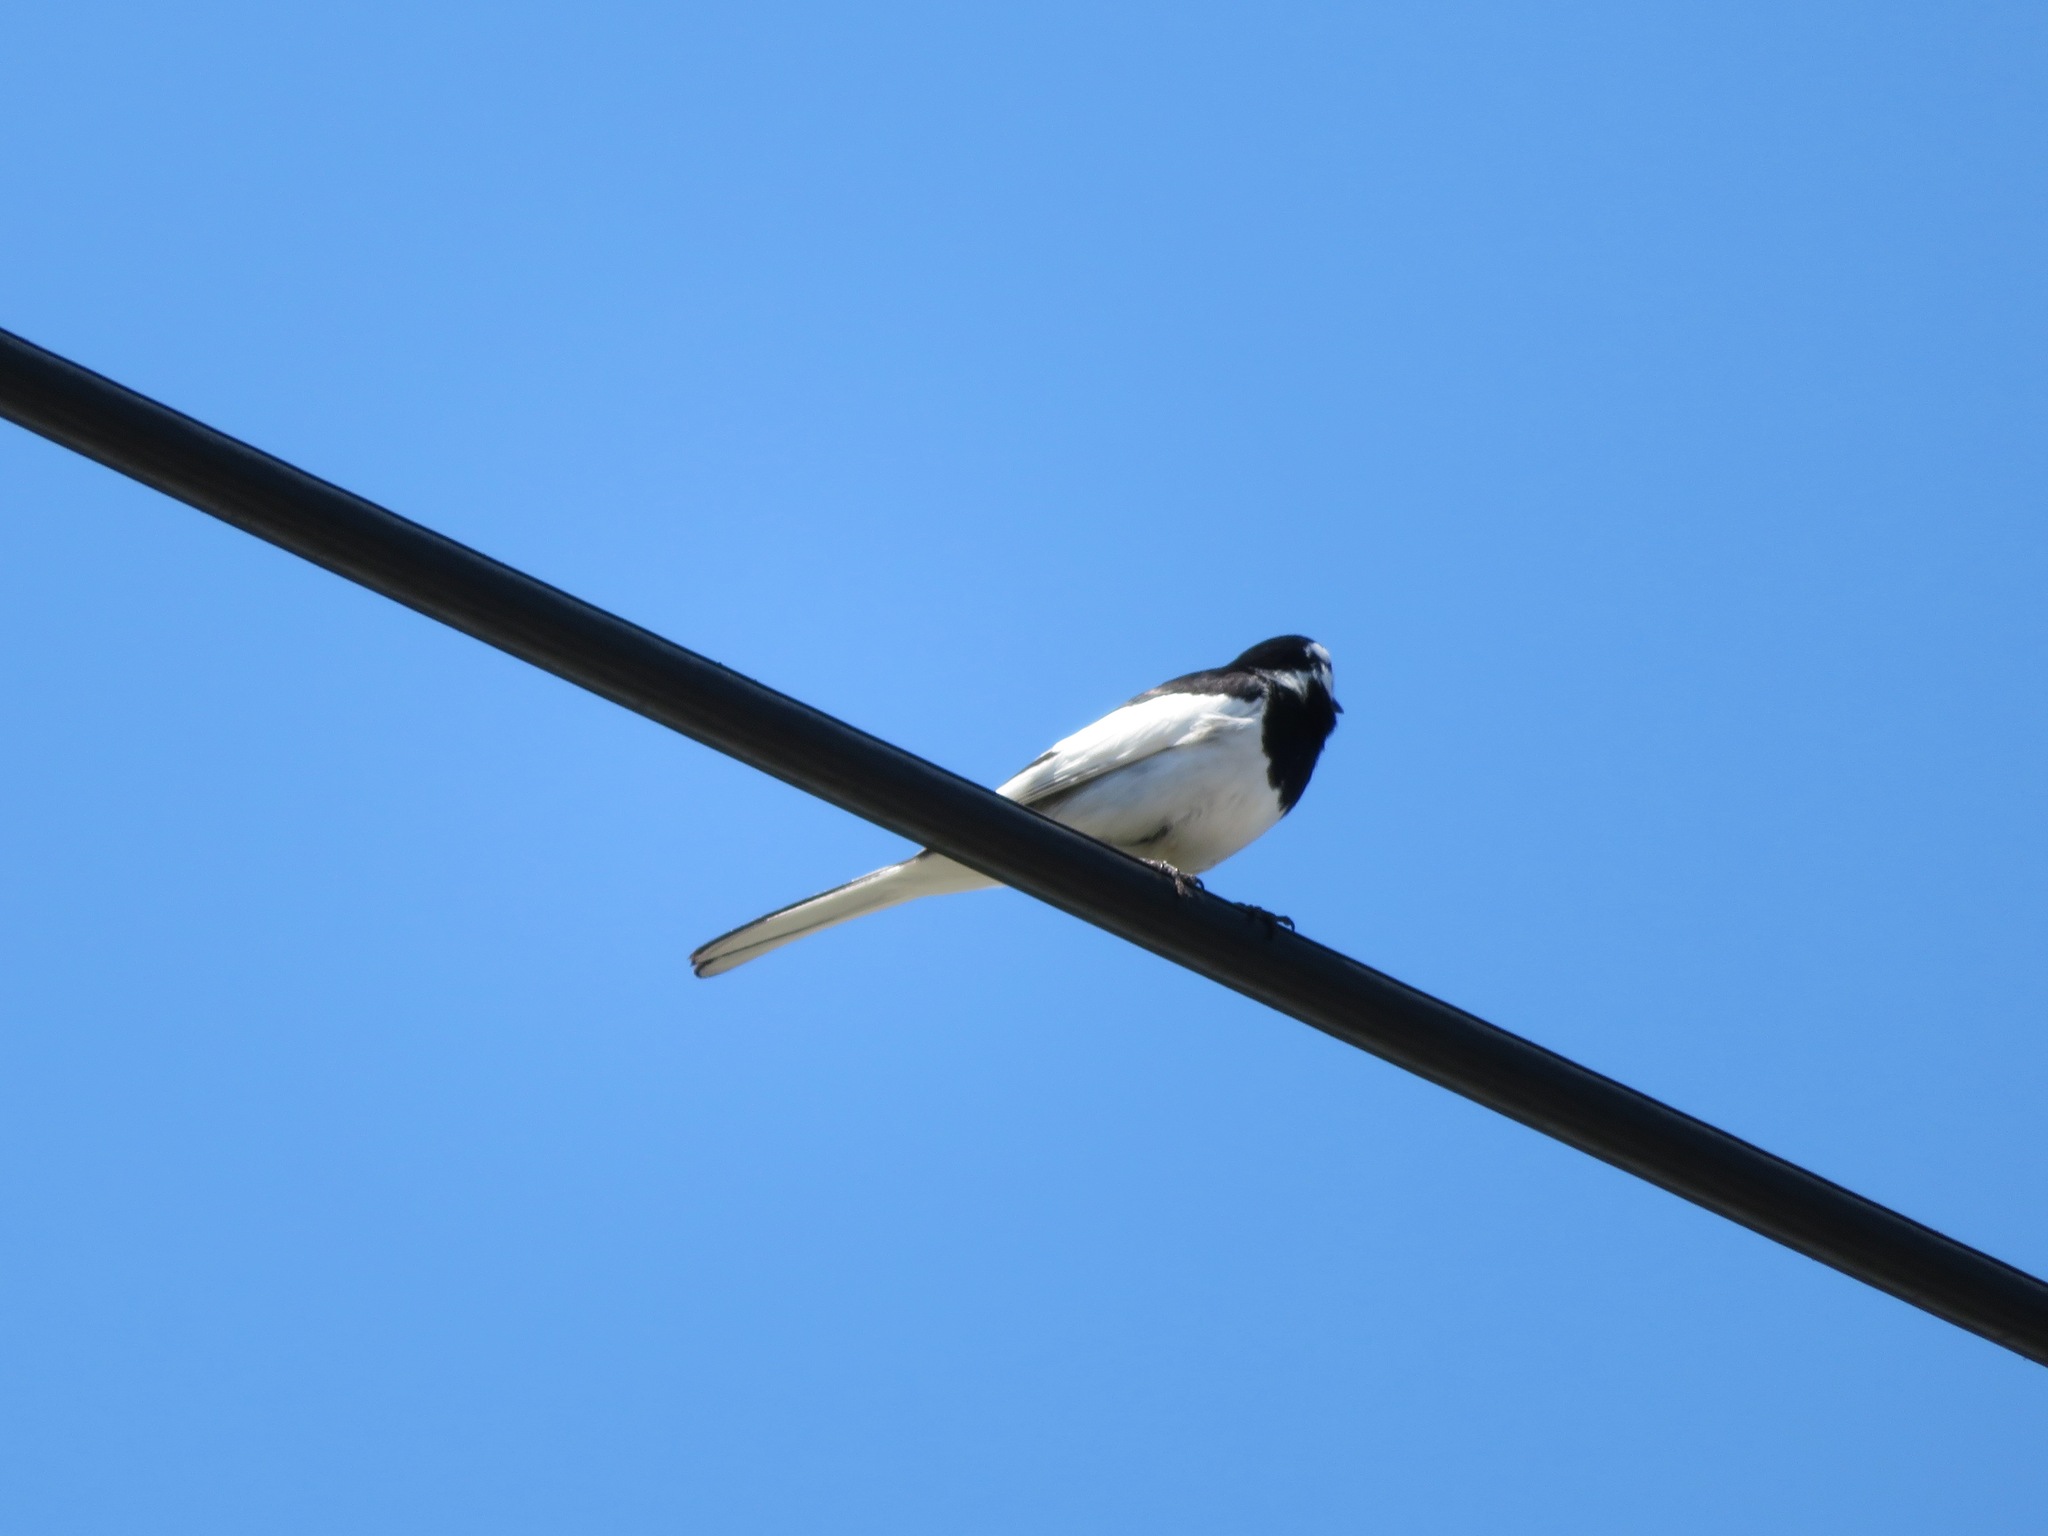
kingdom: Animalia
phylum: Chordata
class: Aves
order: Passeriformes
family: Motacillidae
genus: Motacilla
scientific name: Motacilla alba
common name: White wagtail
